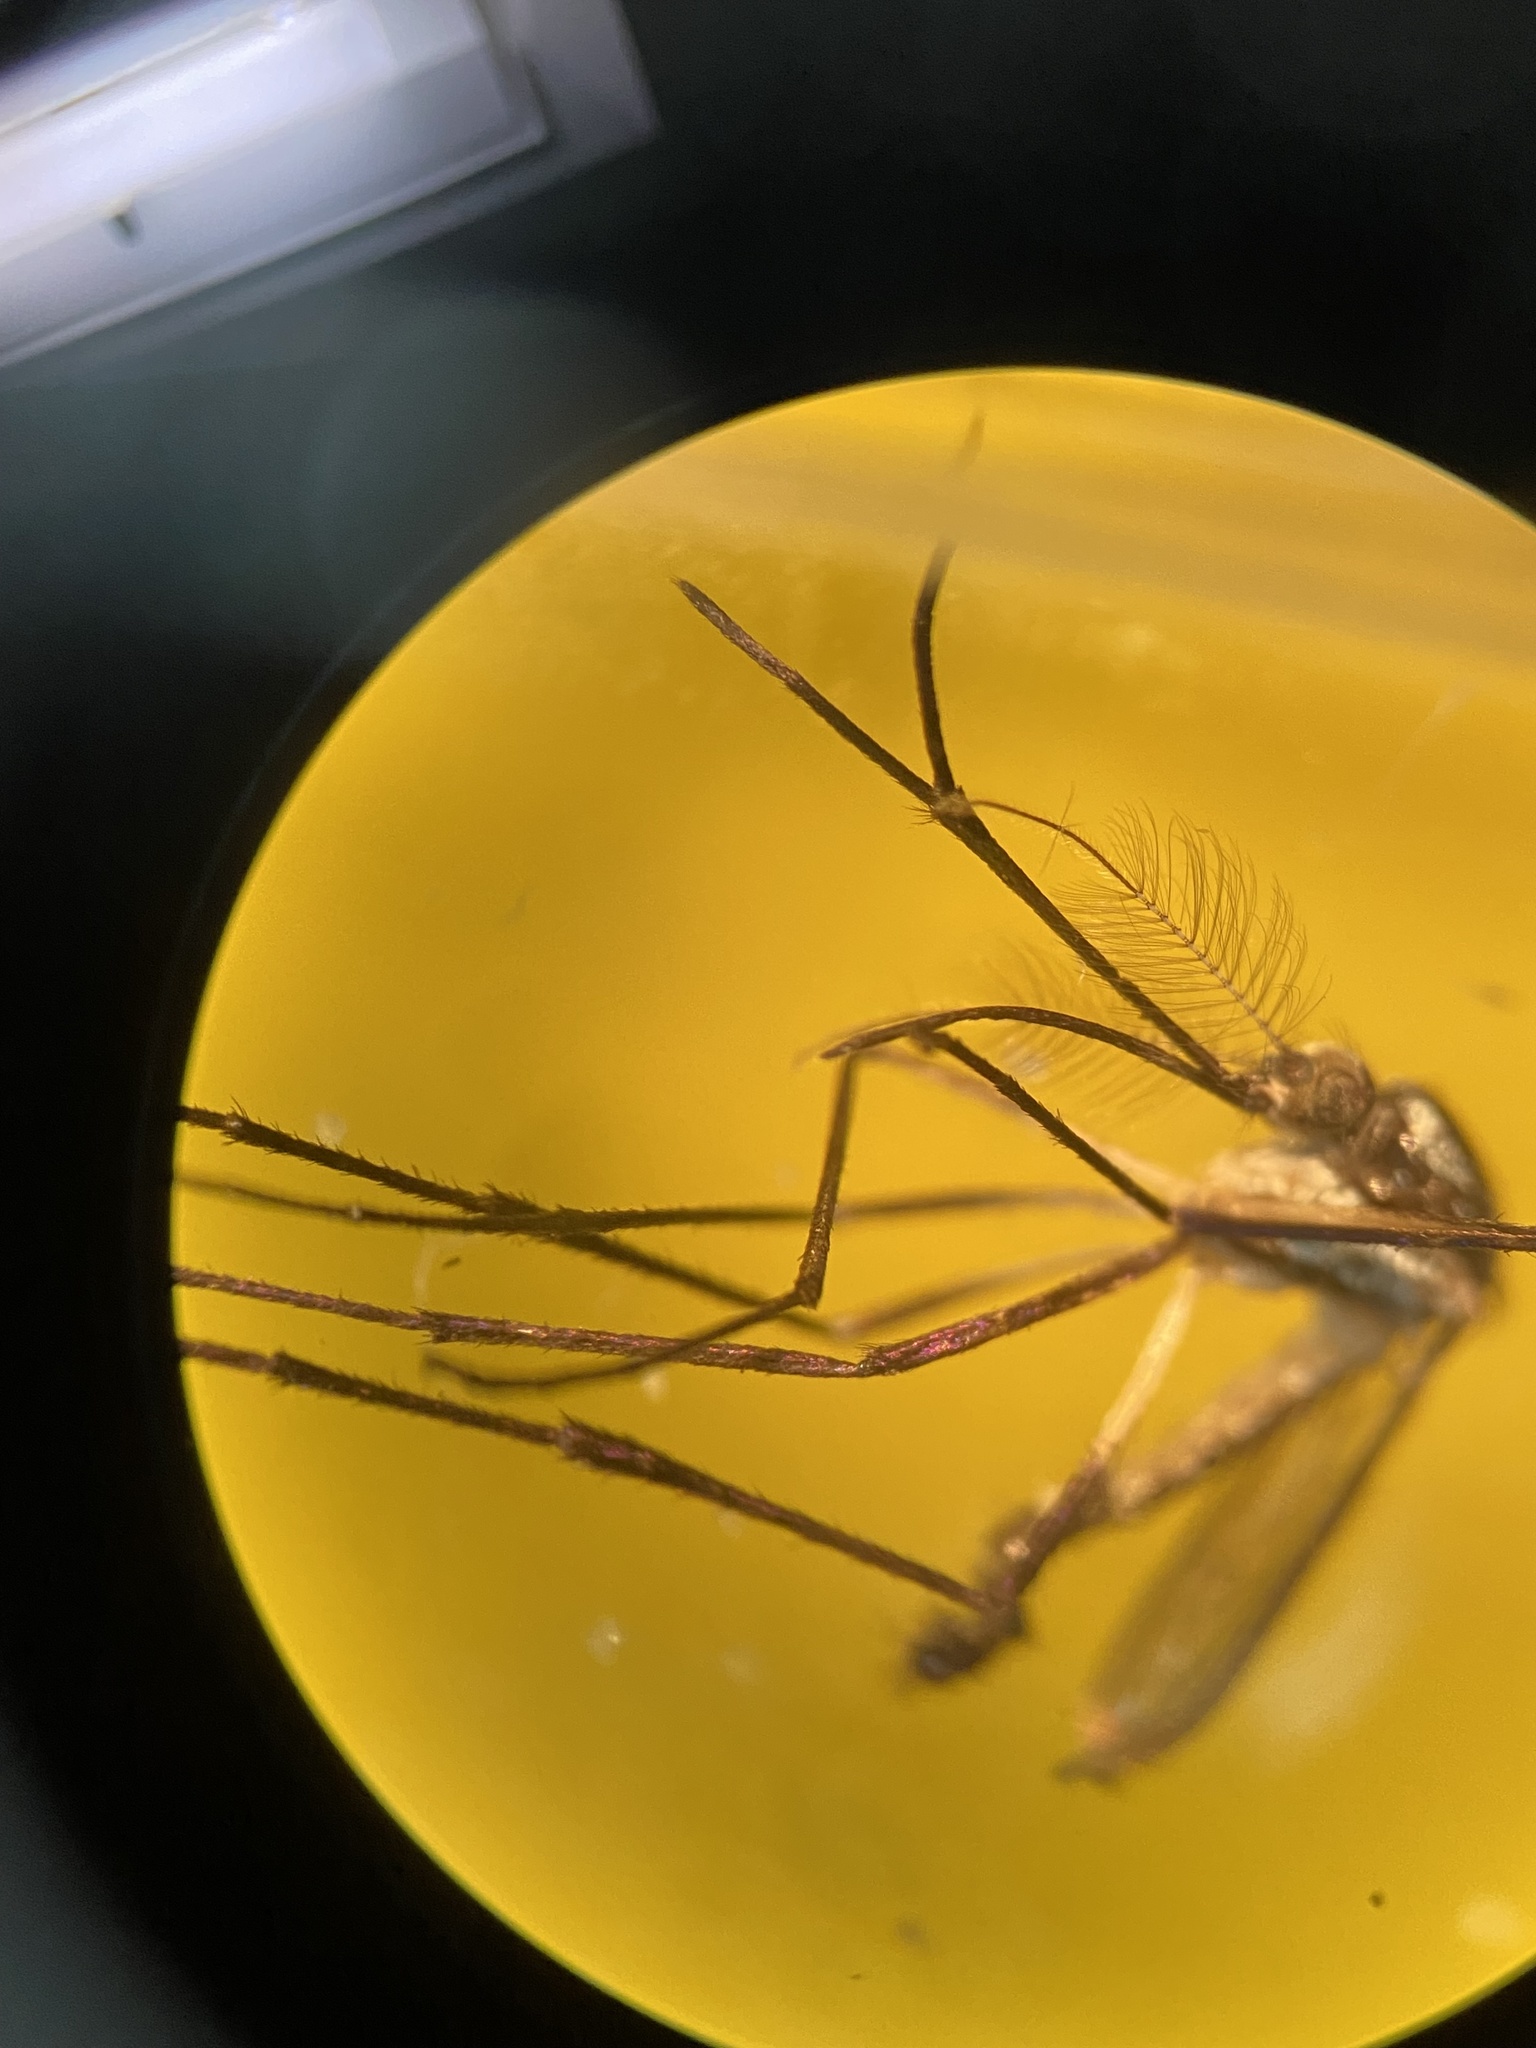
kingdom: Animalia
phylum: Arthropoda
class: Insecta
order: Diptera
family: Culicidae
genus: Psorophora
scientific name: Psorophora horrida
